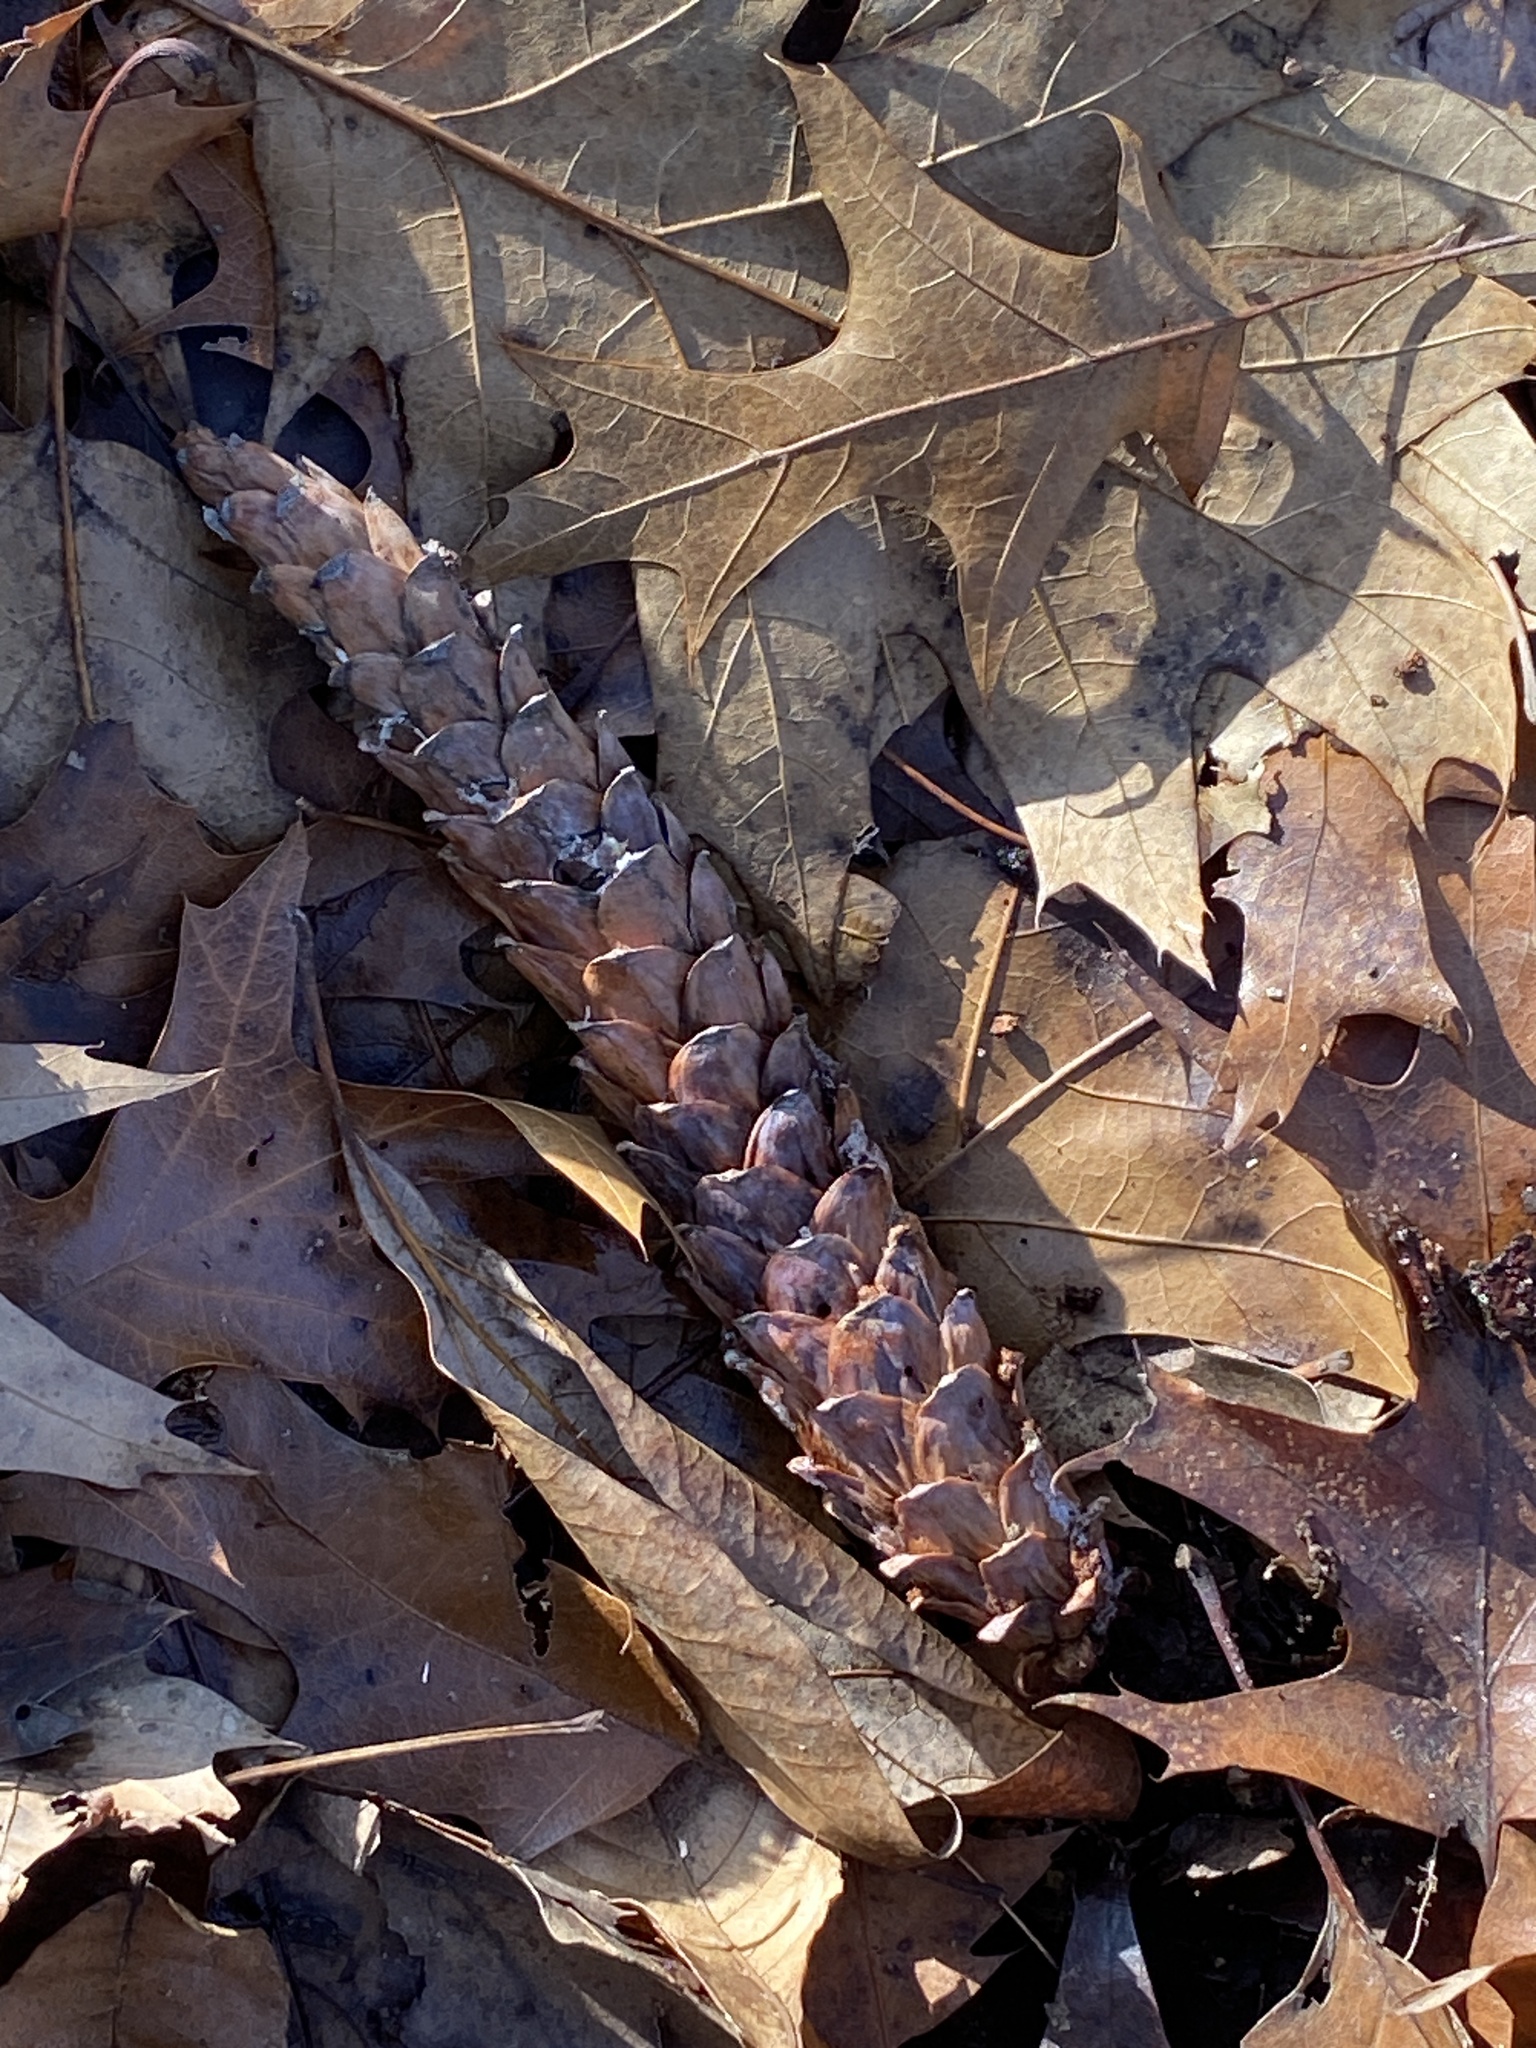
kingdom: Plantae
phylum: Tracheophyta
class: Pinopsida
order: Pinales
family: Pinaceae
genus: Pinus
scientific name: Pinus strobus
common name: Weymouth pine
